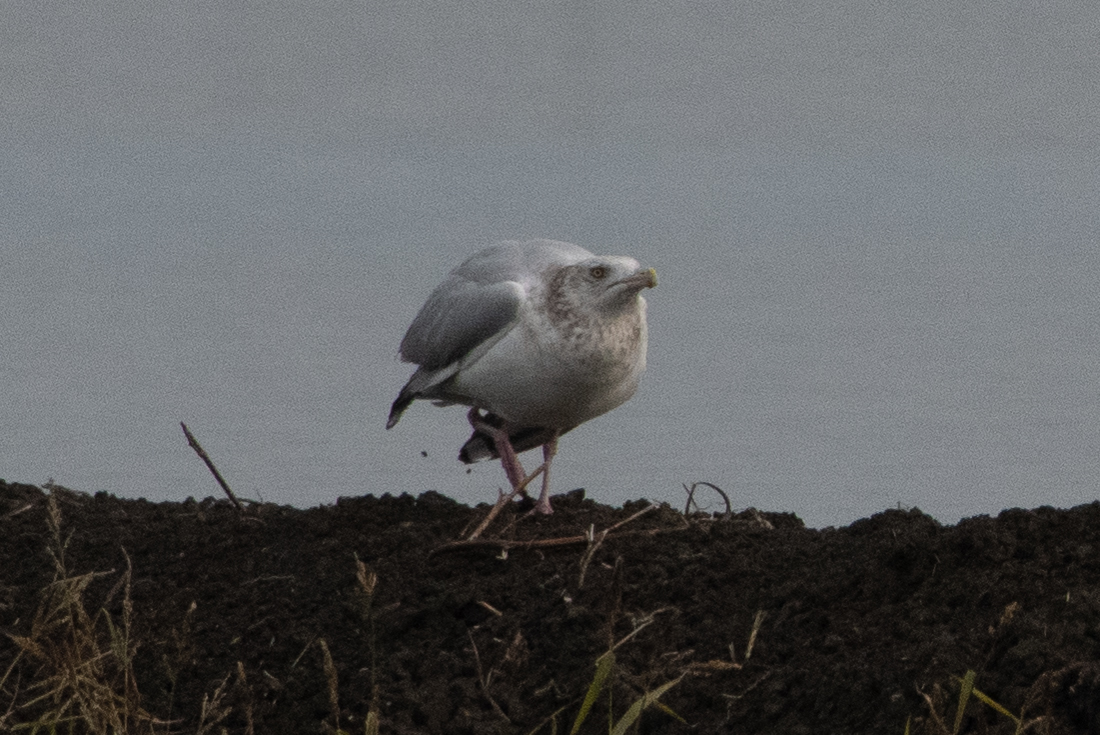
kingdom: Animalia
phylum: Chordata
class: Aves
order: Charadriiformes
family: Laridae
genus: Larus
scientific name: Larus argentatus
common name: Herring gull
